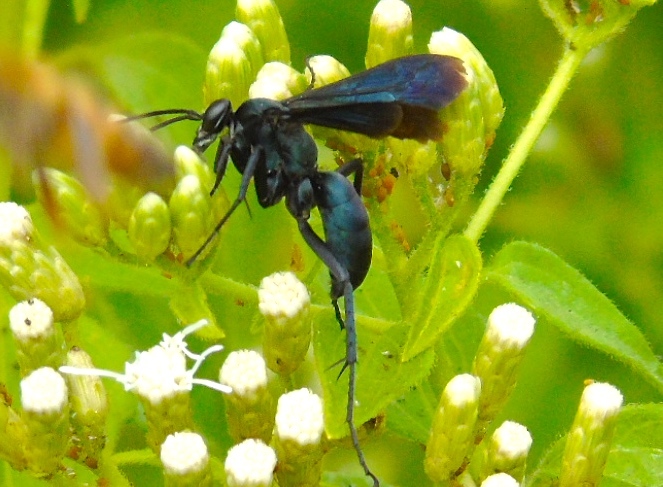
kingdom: Animalia
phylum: Arthropoda
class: Insecta
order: Hymenoptera
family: Pompilidae
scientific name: Pompilidae
